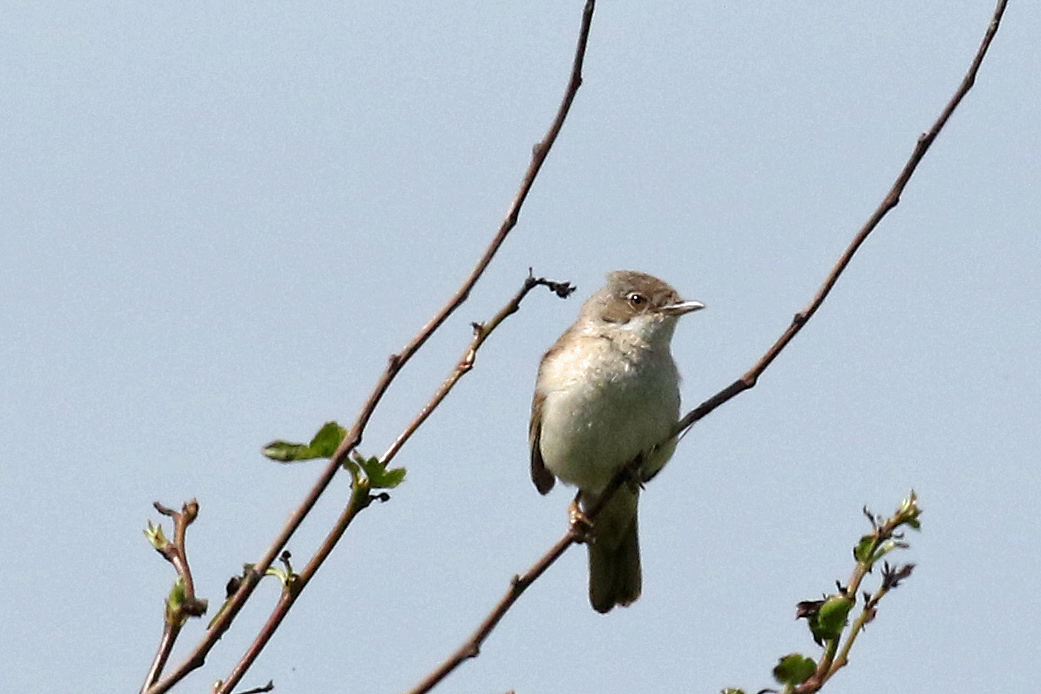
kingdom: Animalia
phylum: Chordata
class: Aves
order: Passeriformes
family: Sylviidae
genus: Sylvia
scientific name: Sylvia communis
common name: Common whitethroat
